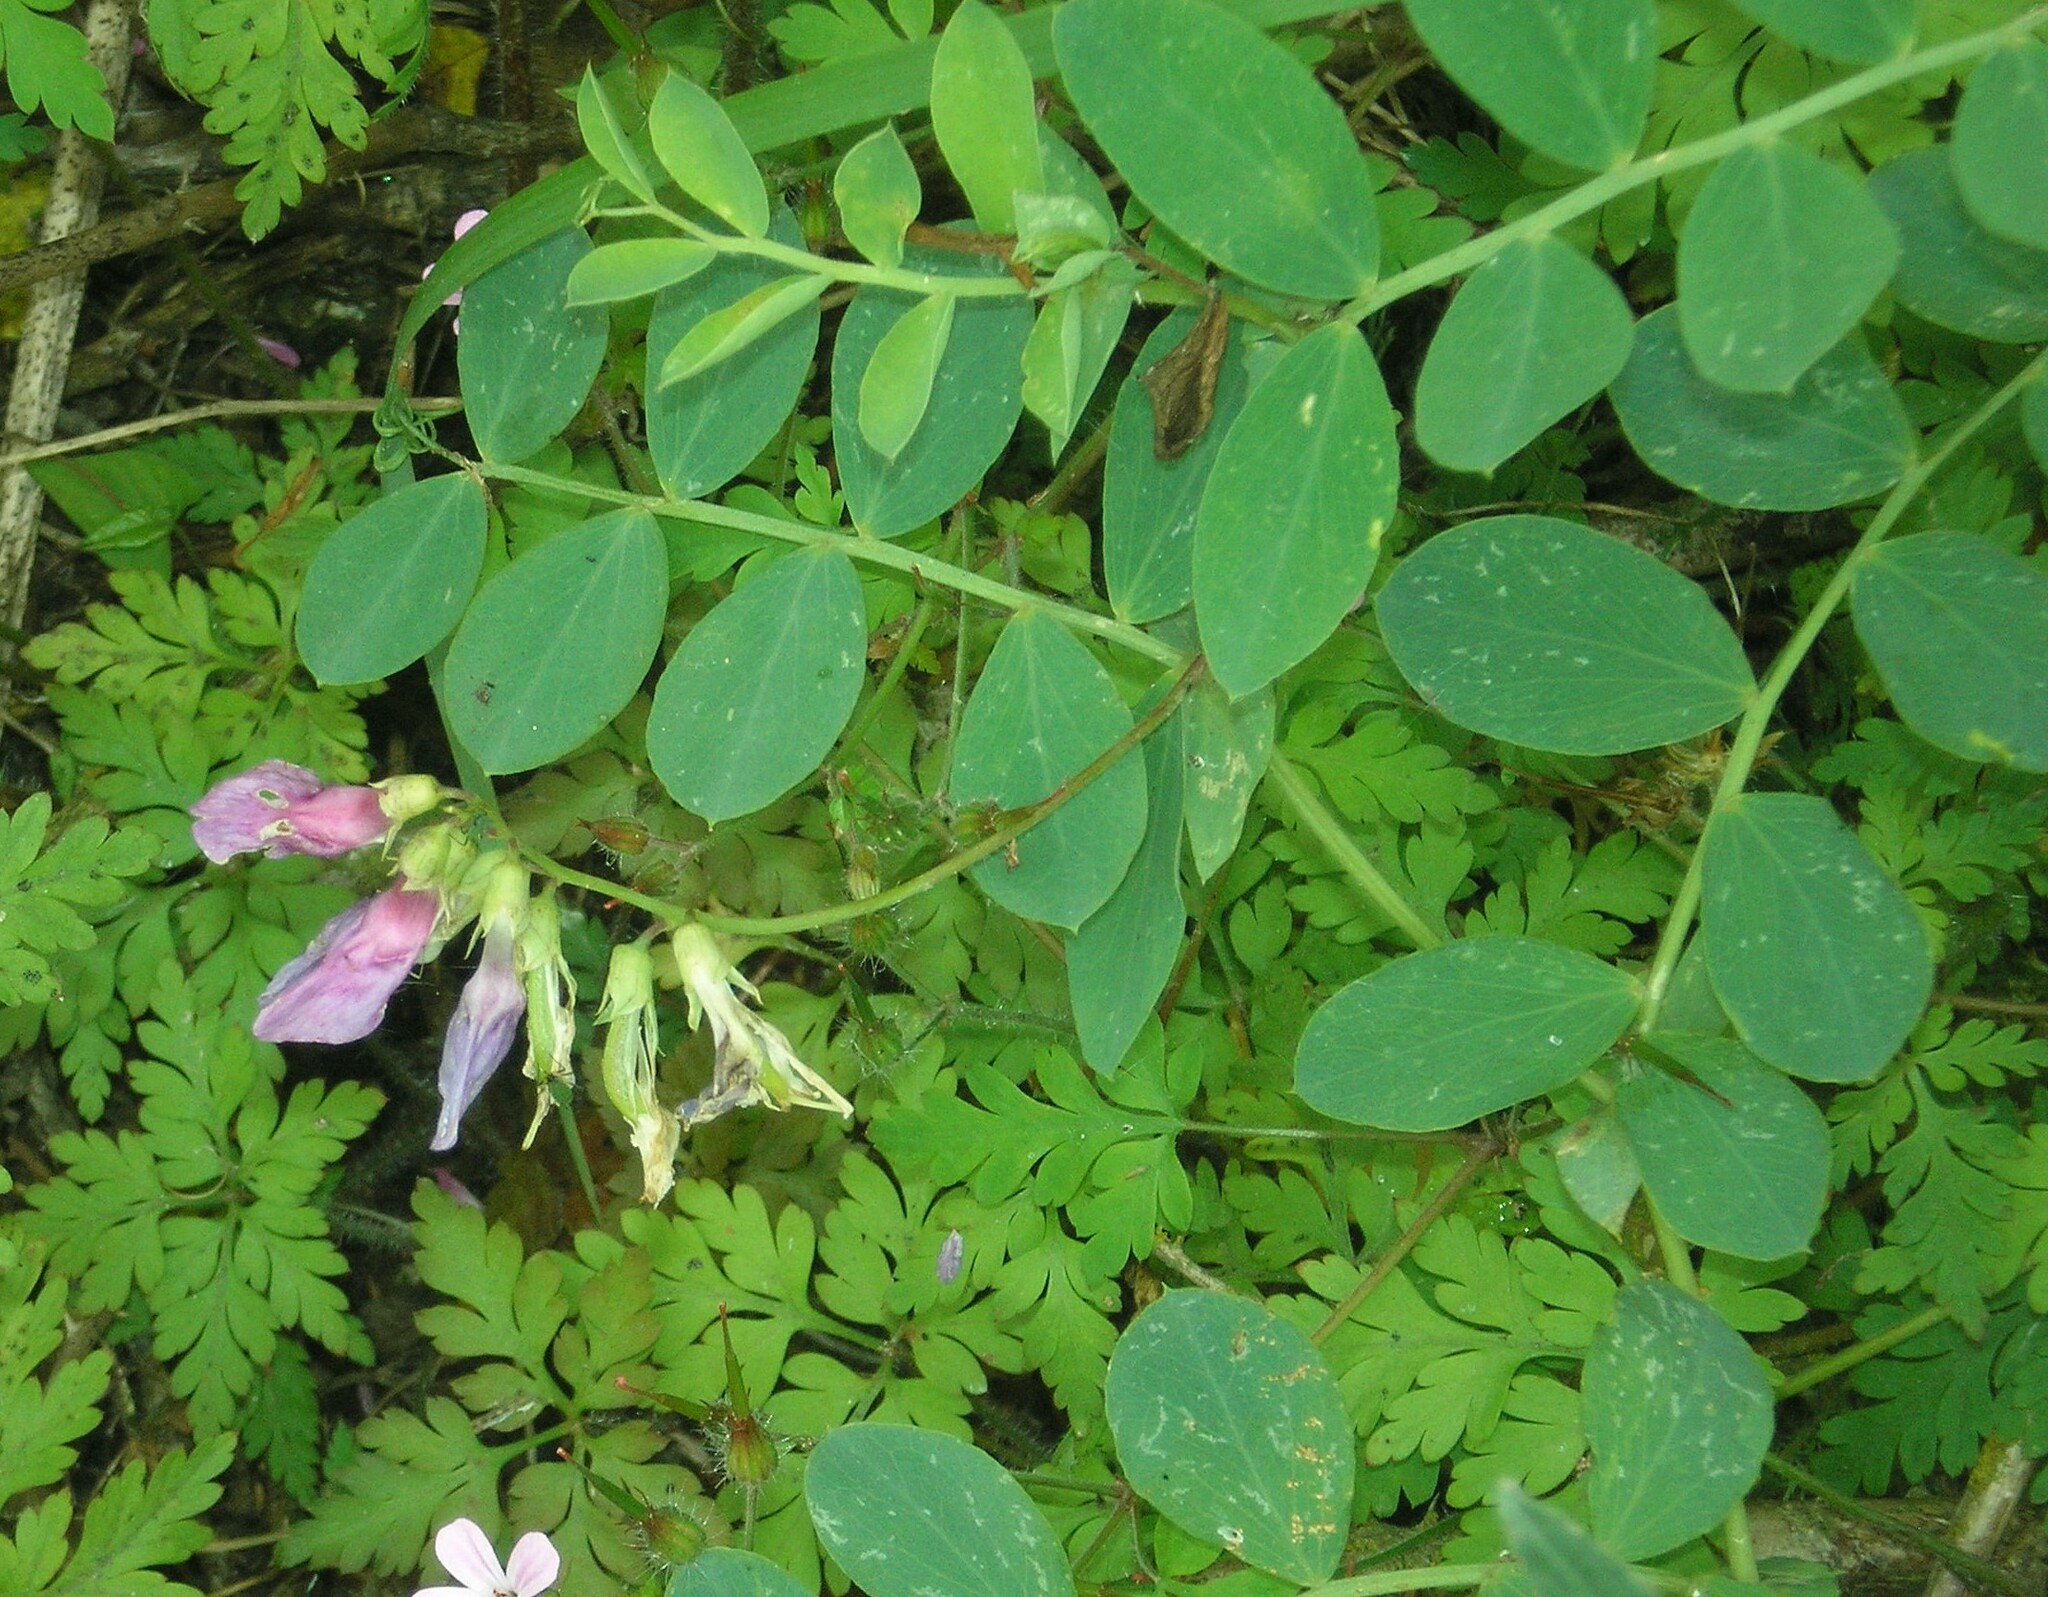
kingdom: Plantae
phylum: Tracheophyta
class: Magnoliopsida
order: Fabales
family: Fabaceae
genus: Lathyrus
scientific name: Lathyrus japonicus
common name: Sea pea
